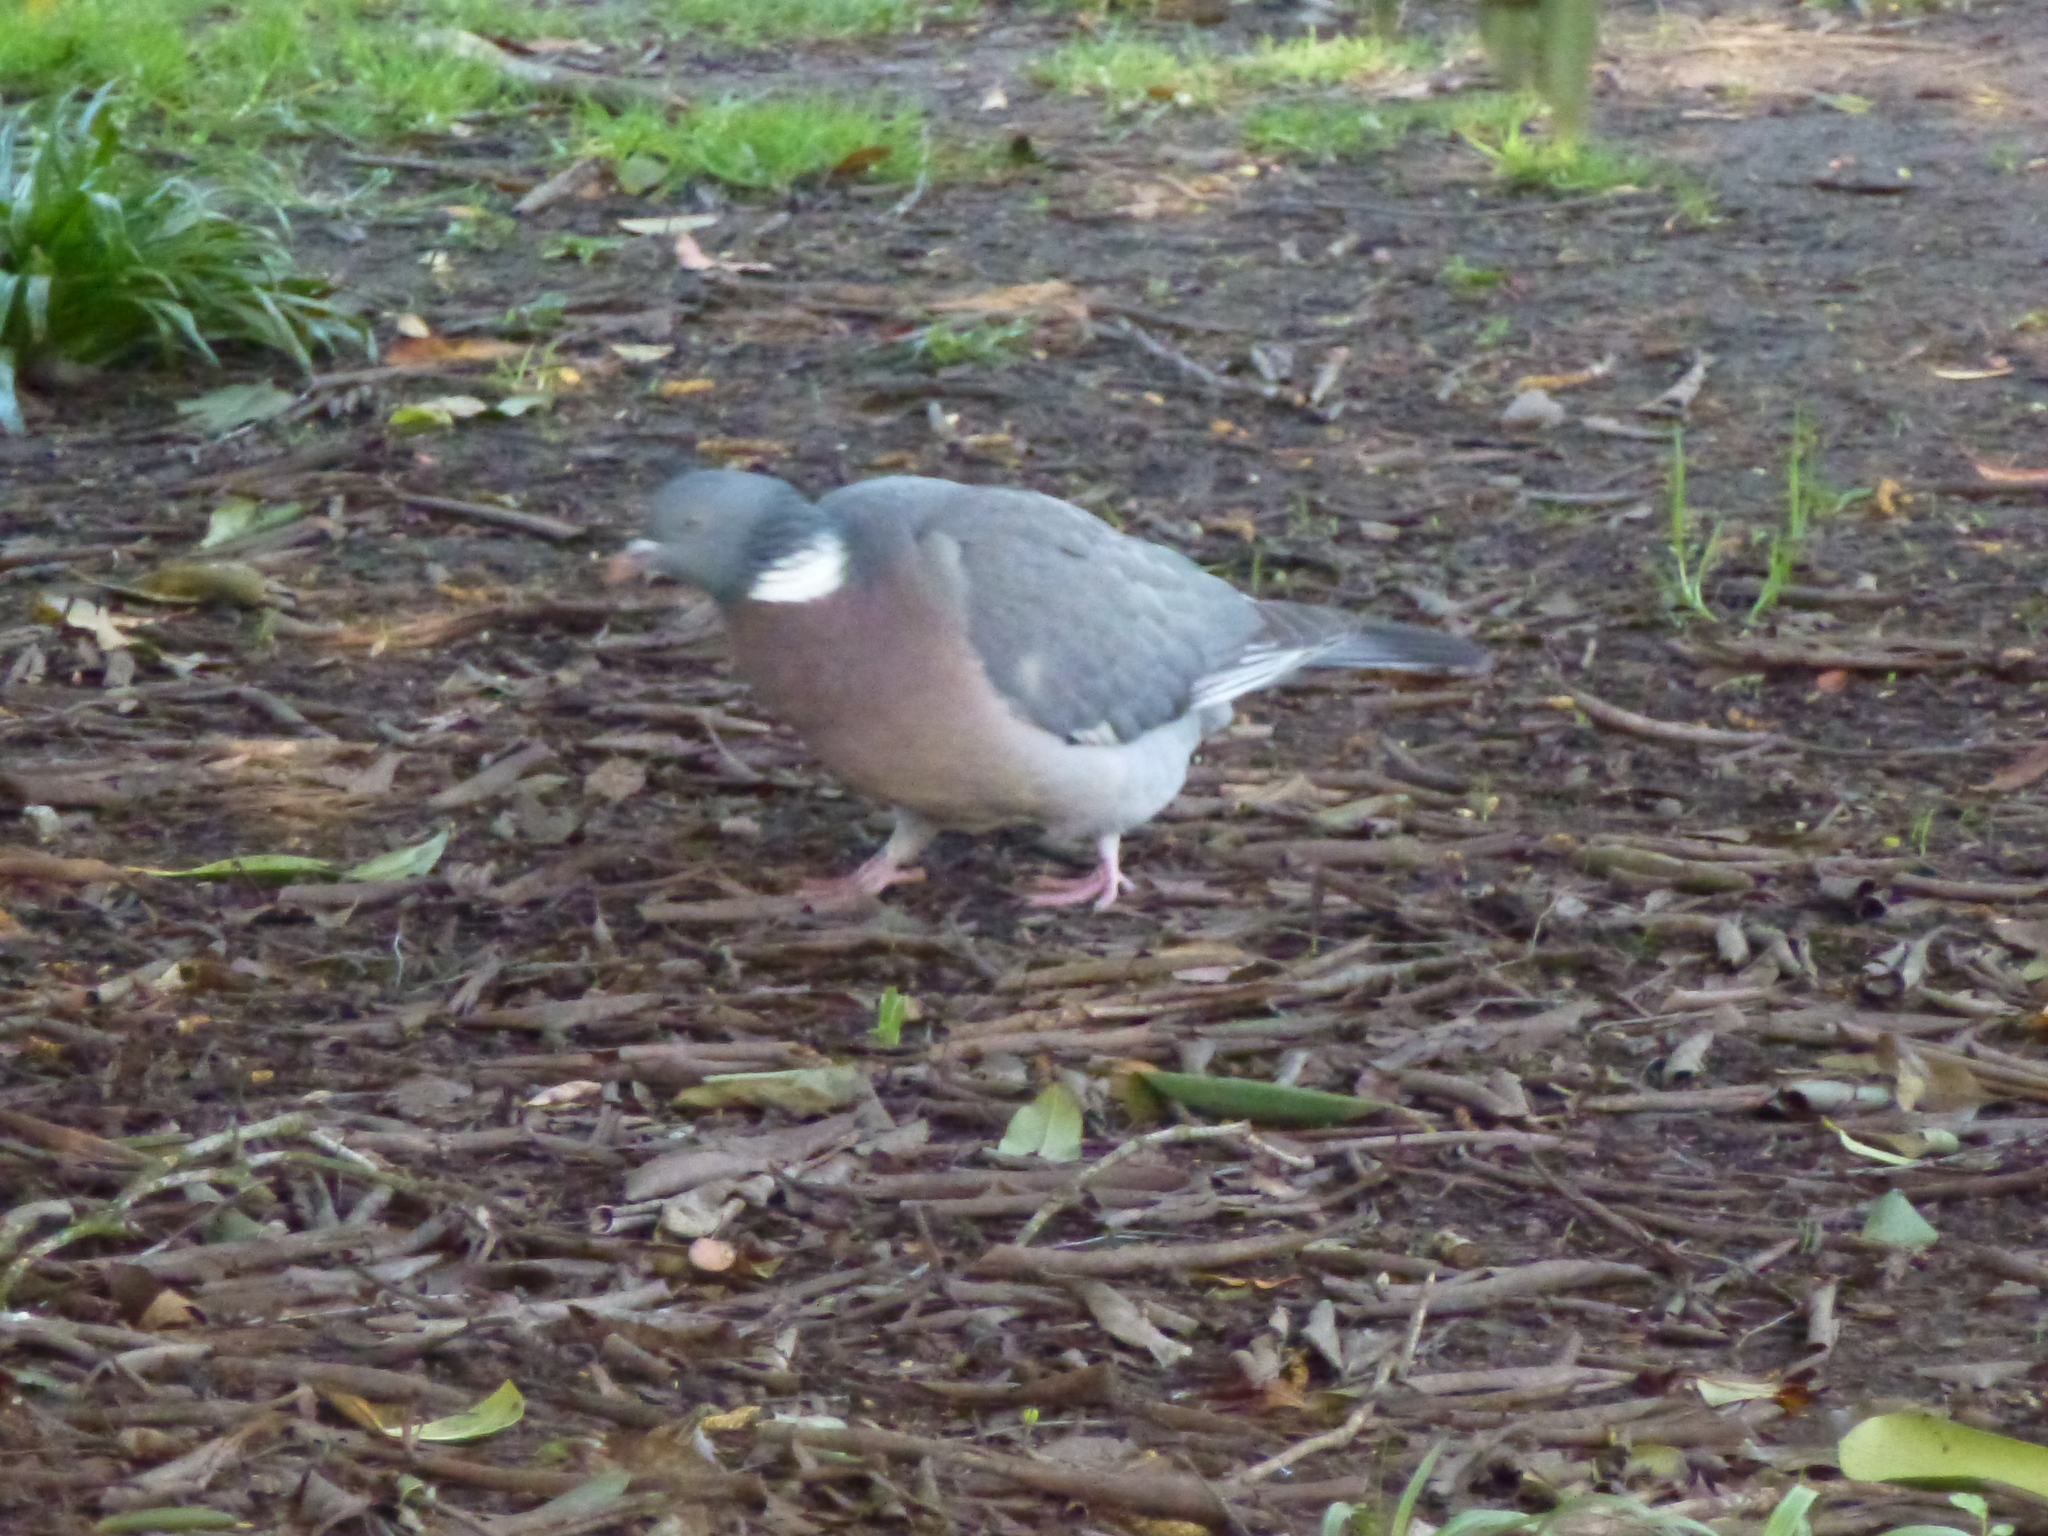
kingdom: Animalia
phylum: Chordata
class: Aves
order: Columbiformes
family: Columbidae
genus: Columba
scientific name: Columba palumbus
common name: Common wood pigeon
